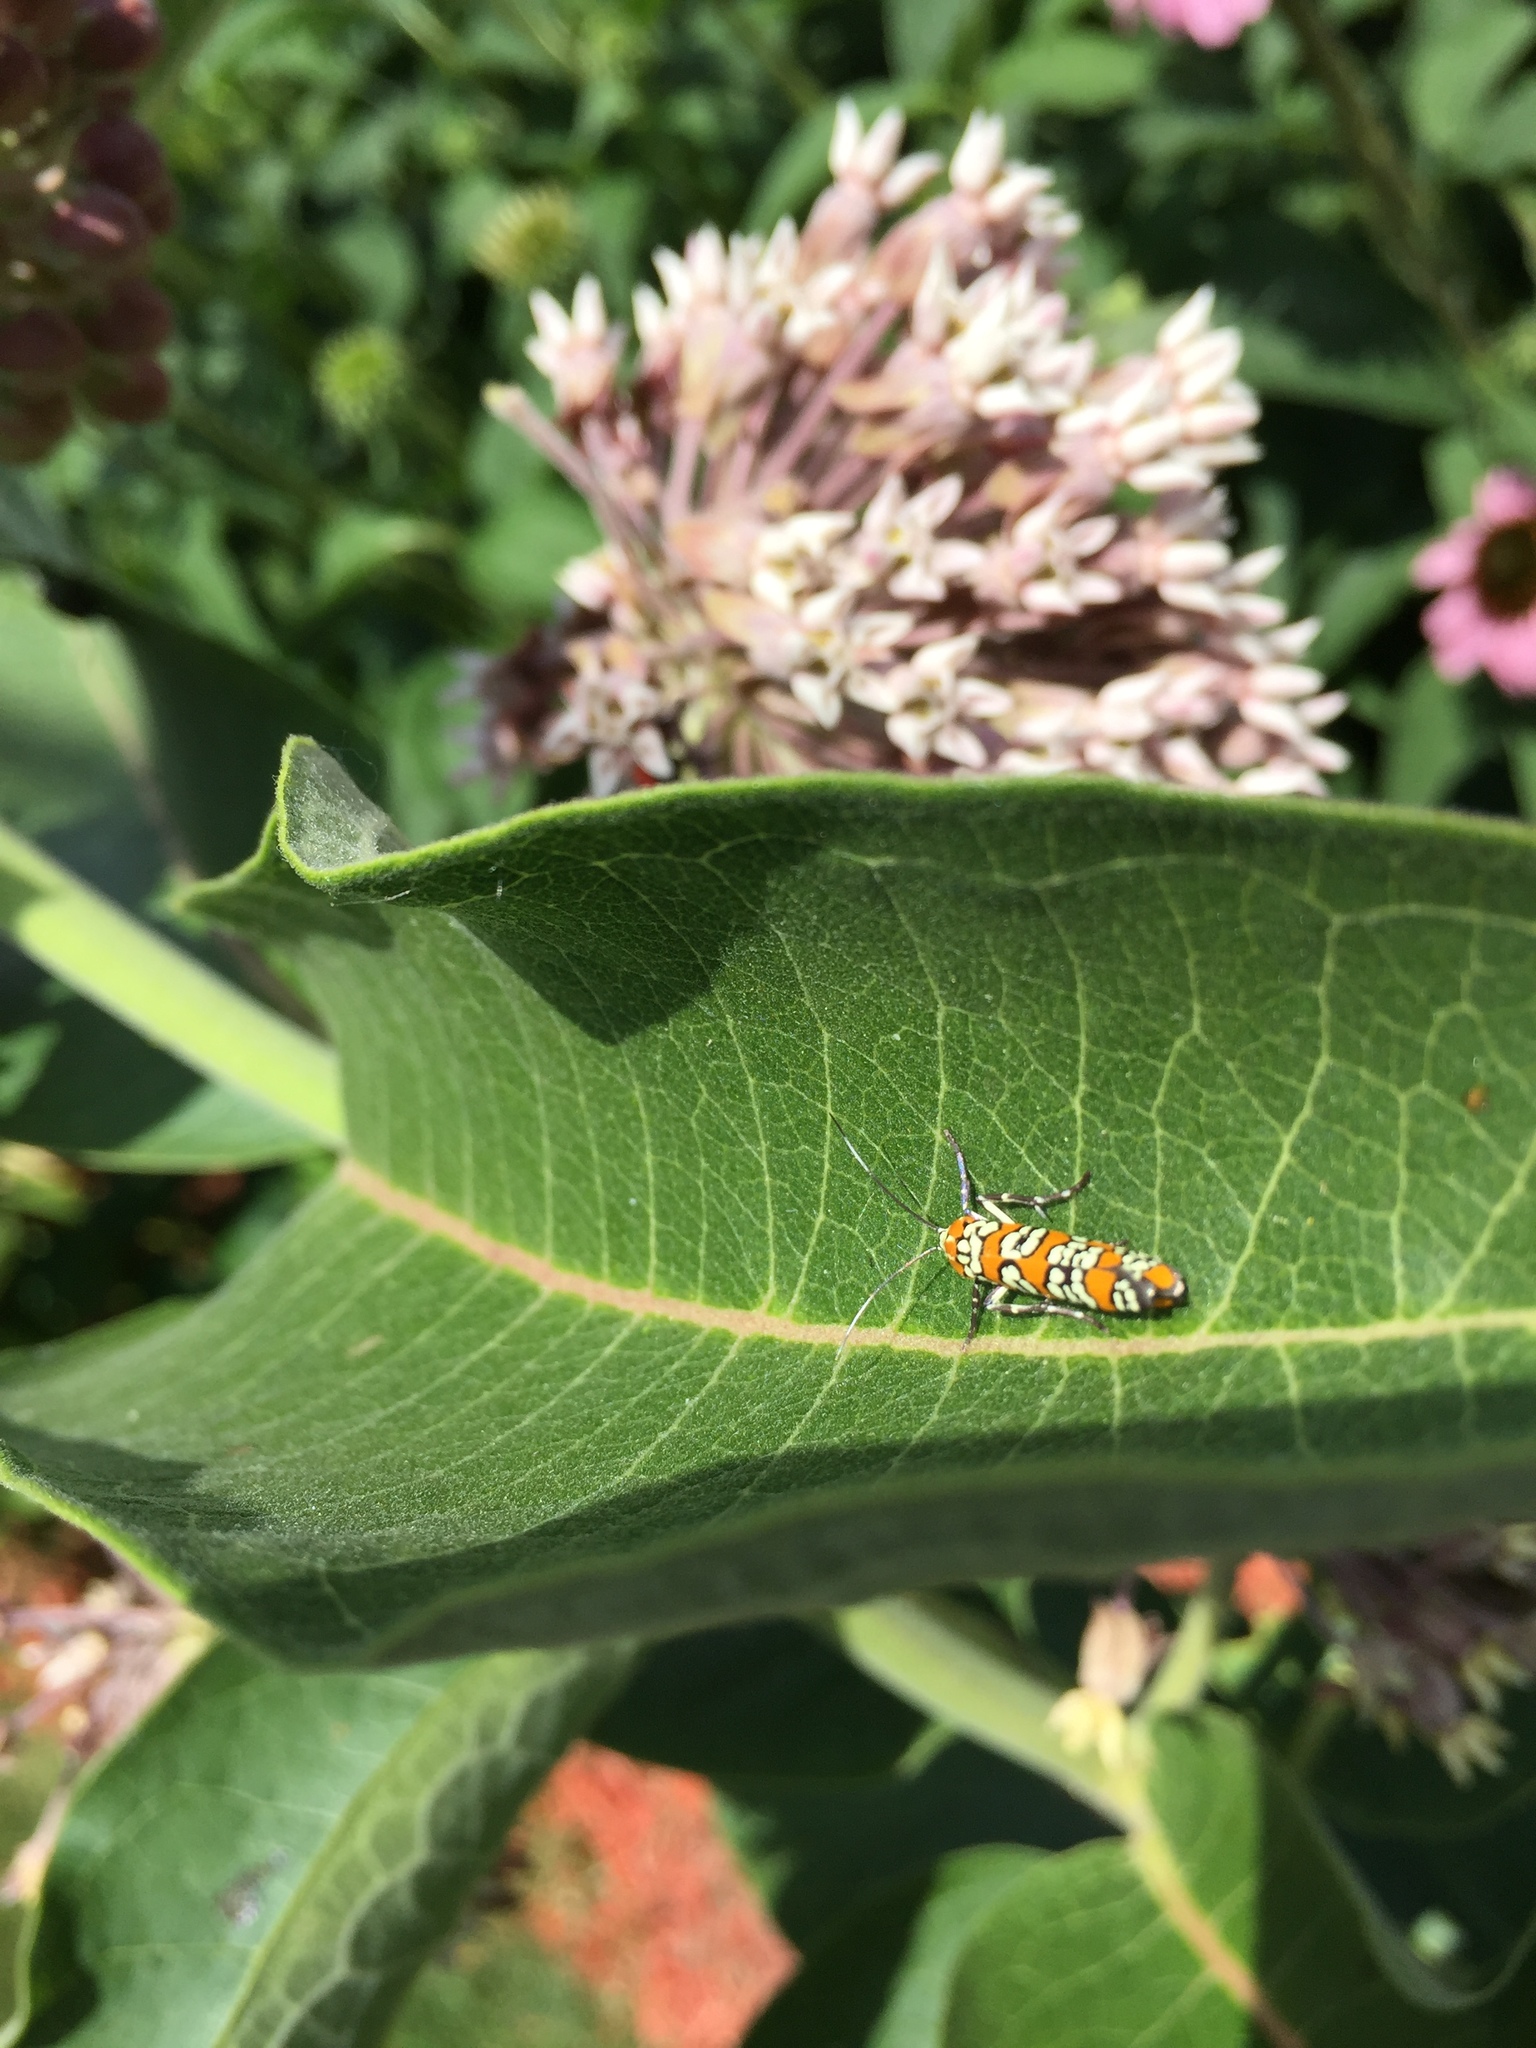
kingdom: Animalia
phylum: Arthropoda
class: Insecta
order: Lepidoptera
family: Attevidae
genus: Atteva
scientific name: Atteva punctella
